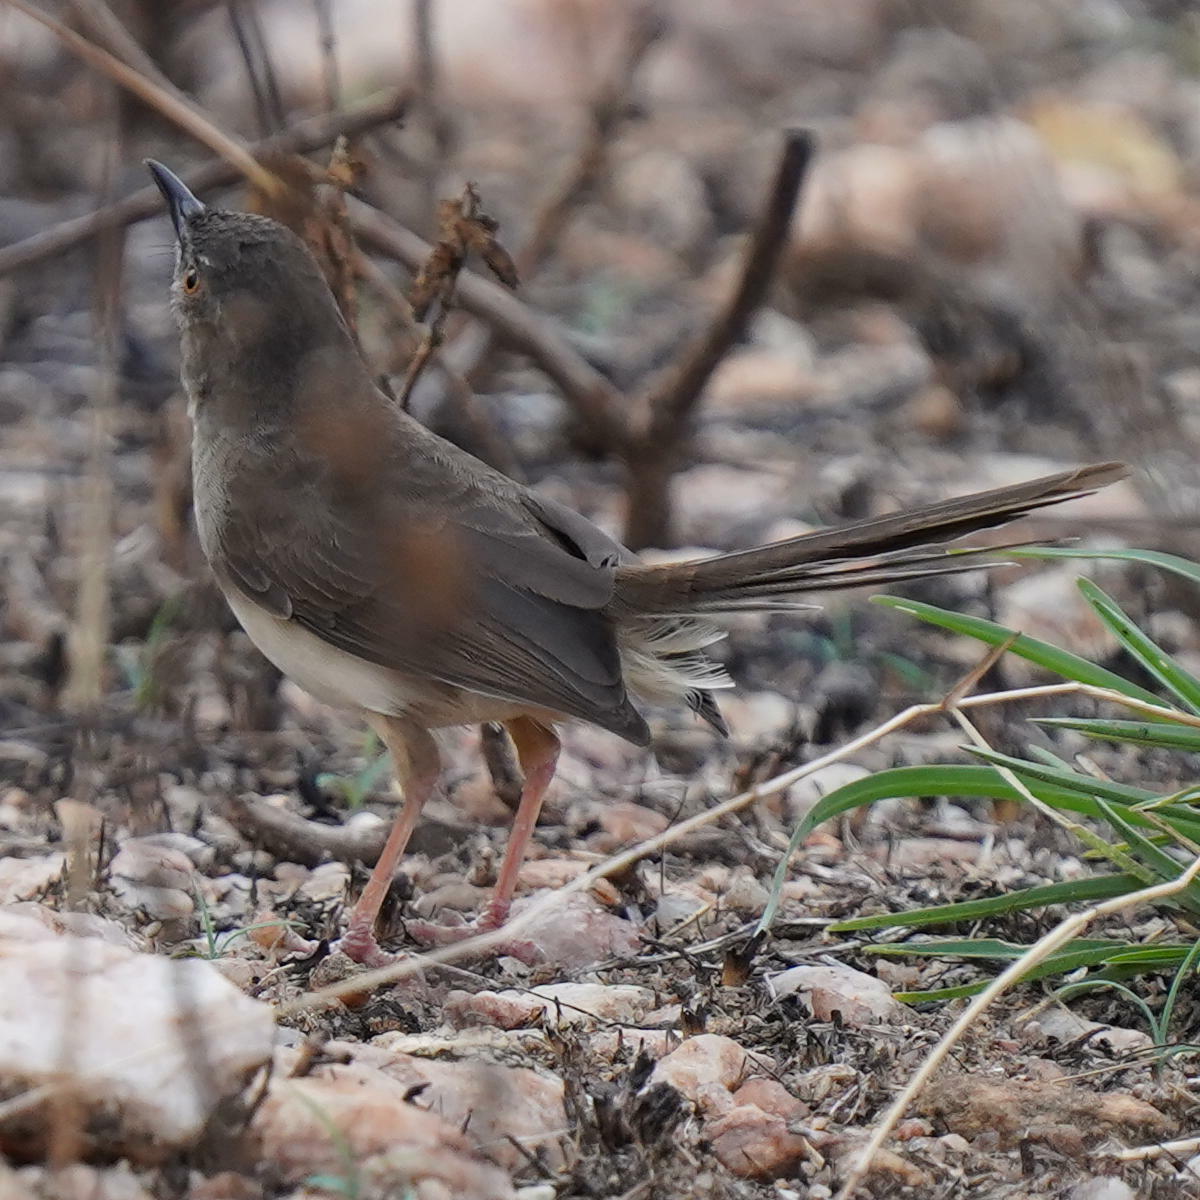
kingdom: Animalia
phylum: Chordata
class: Aves
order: Passeriformes
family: Cisticolidae
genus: Prinia
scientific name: Prinia sylvatica
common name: Jungle prinia
